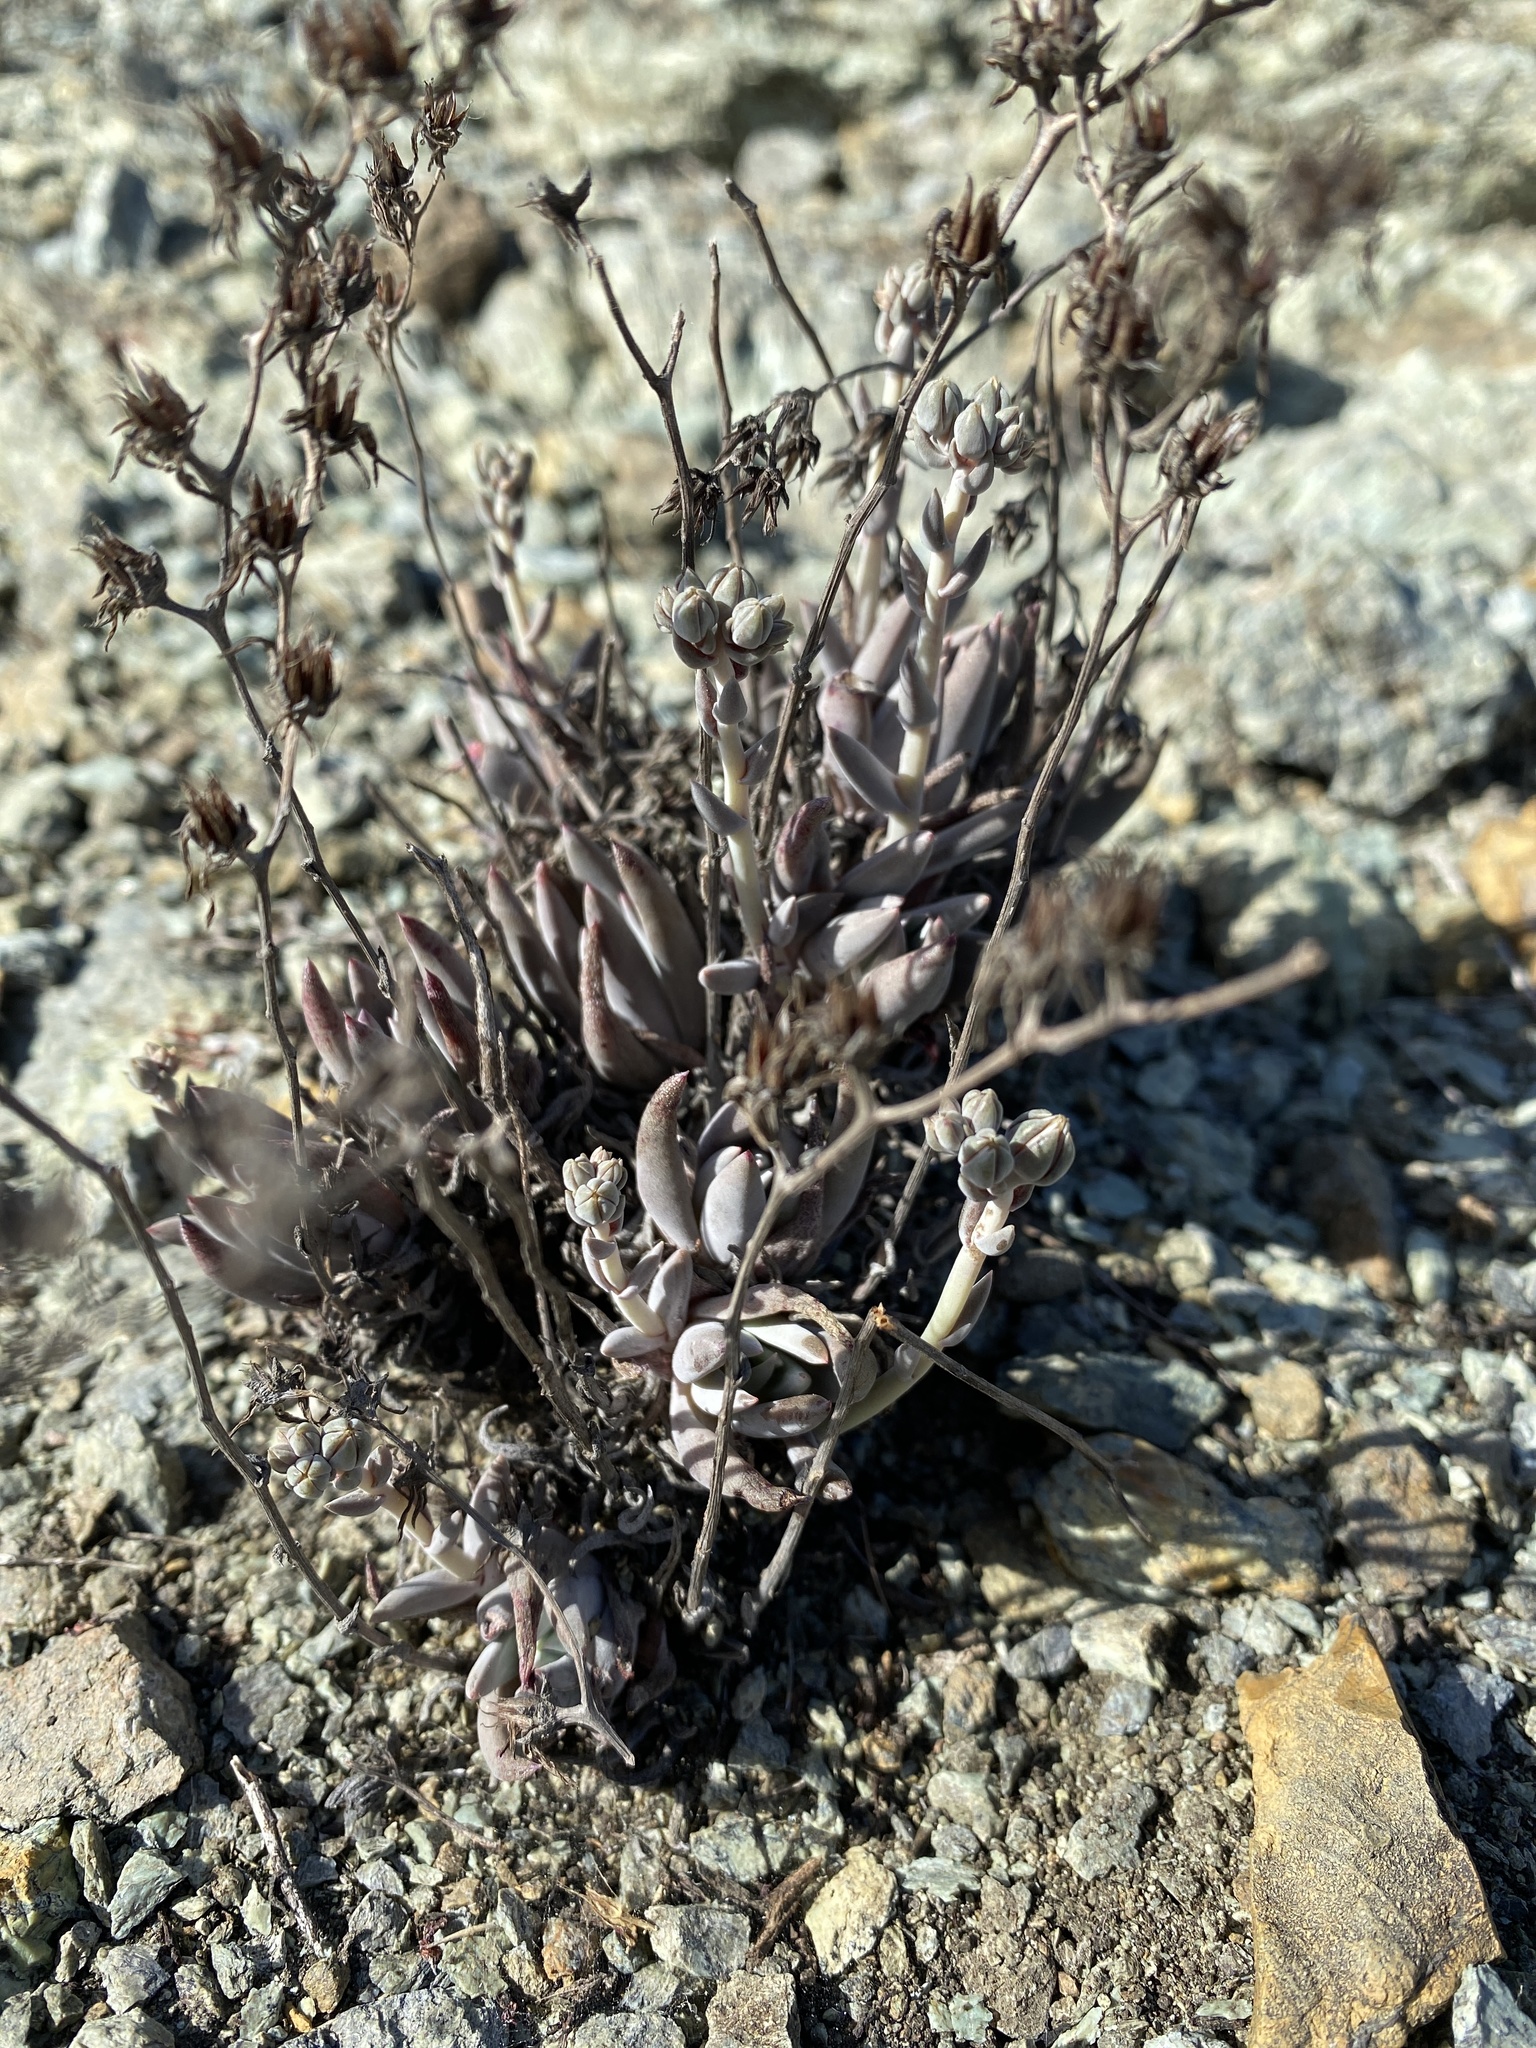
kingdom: Plantae
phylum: Tracheophyta
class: Magnoliopsida
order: Saxifragales
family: Crassulaceae
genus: Dudleya
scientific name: Dudleya abramsii
